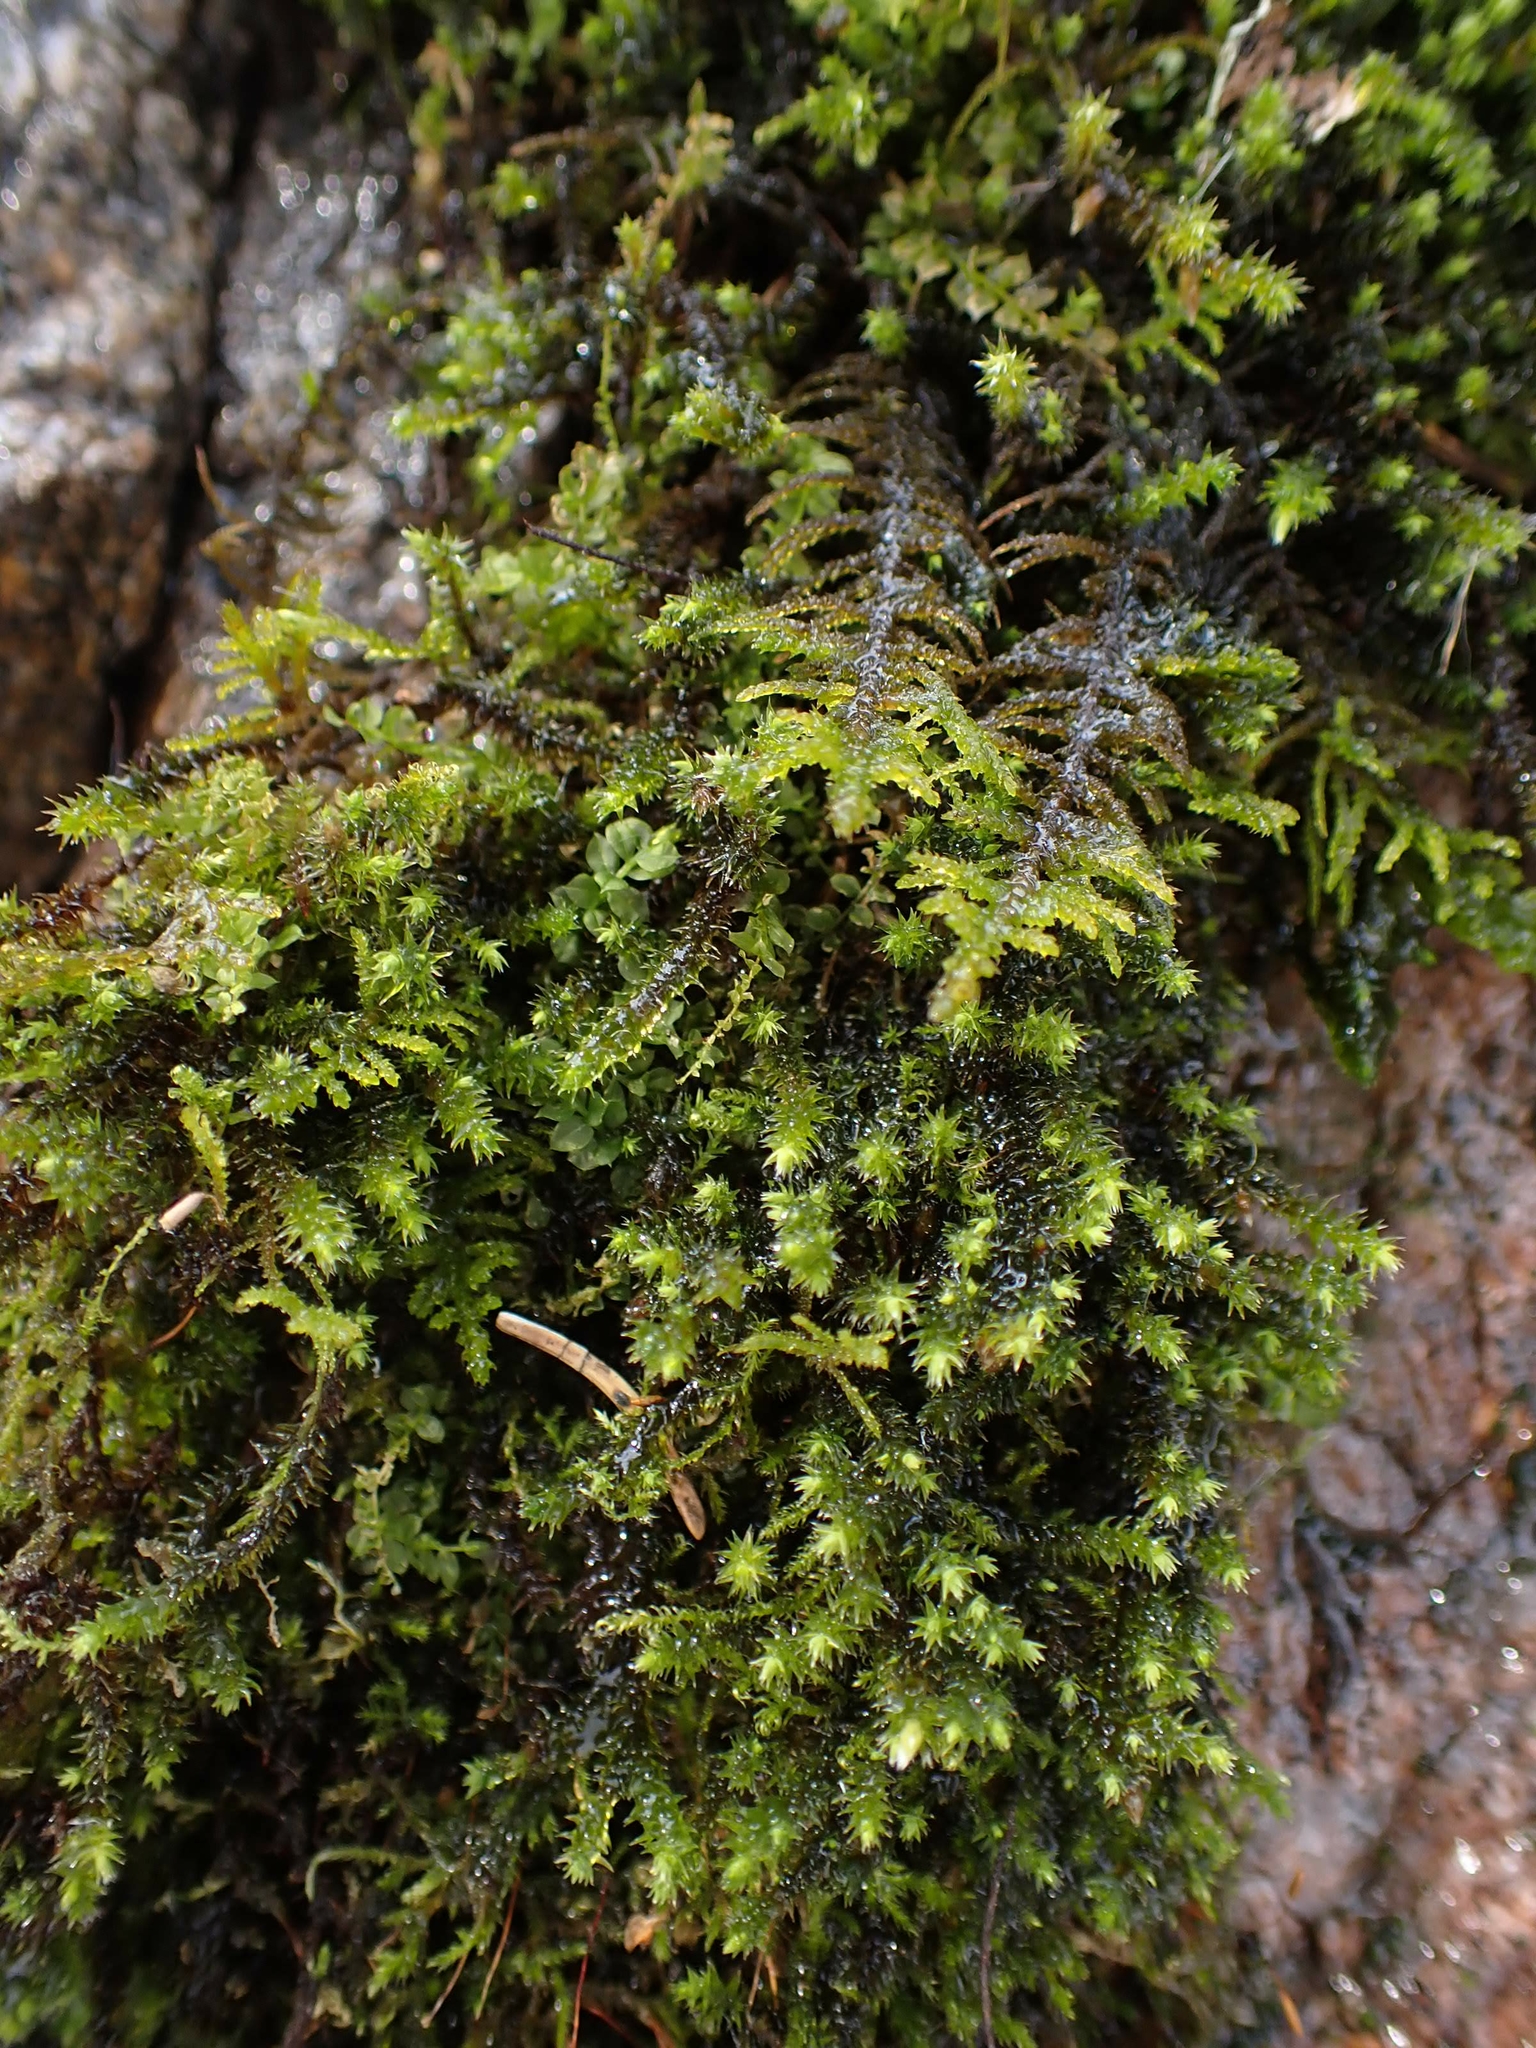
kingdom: Plantae
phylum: Bryophyta
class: Bryopsida
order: Hypnales
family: Thuidiaceae
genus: Abietinella
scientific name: Abietinella abietina
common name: Wiry fern moss
